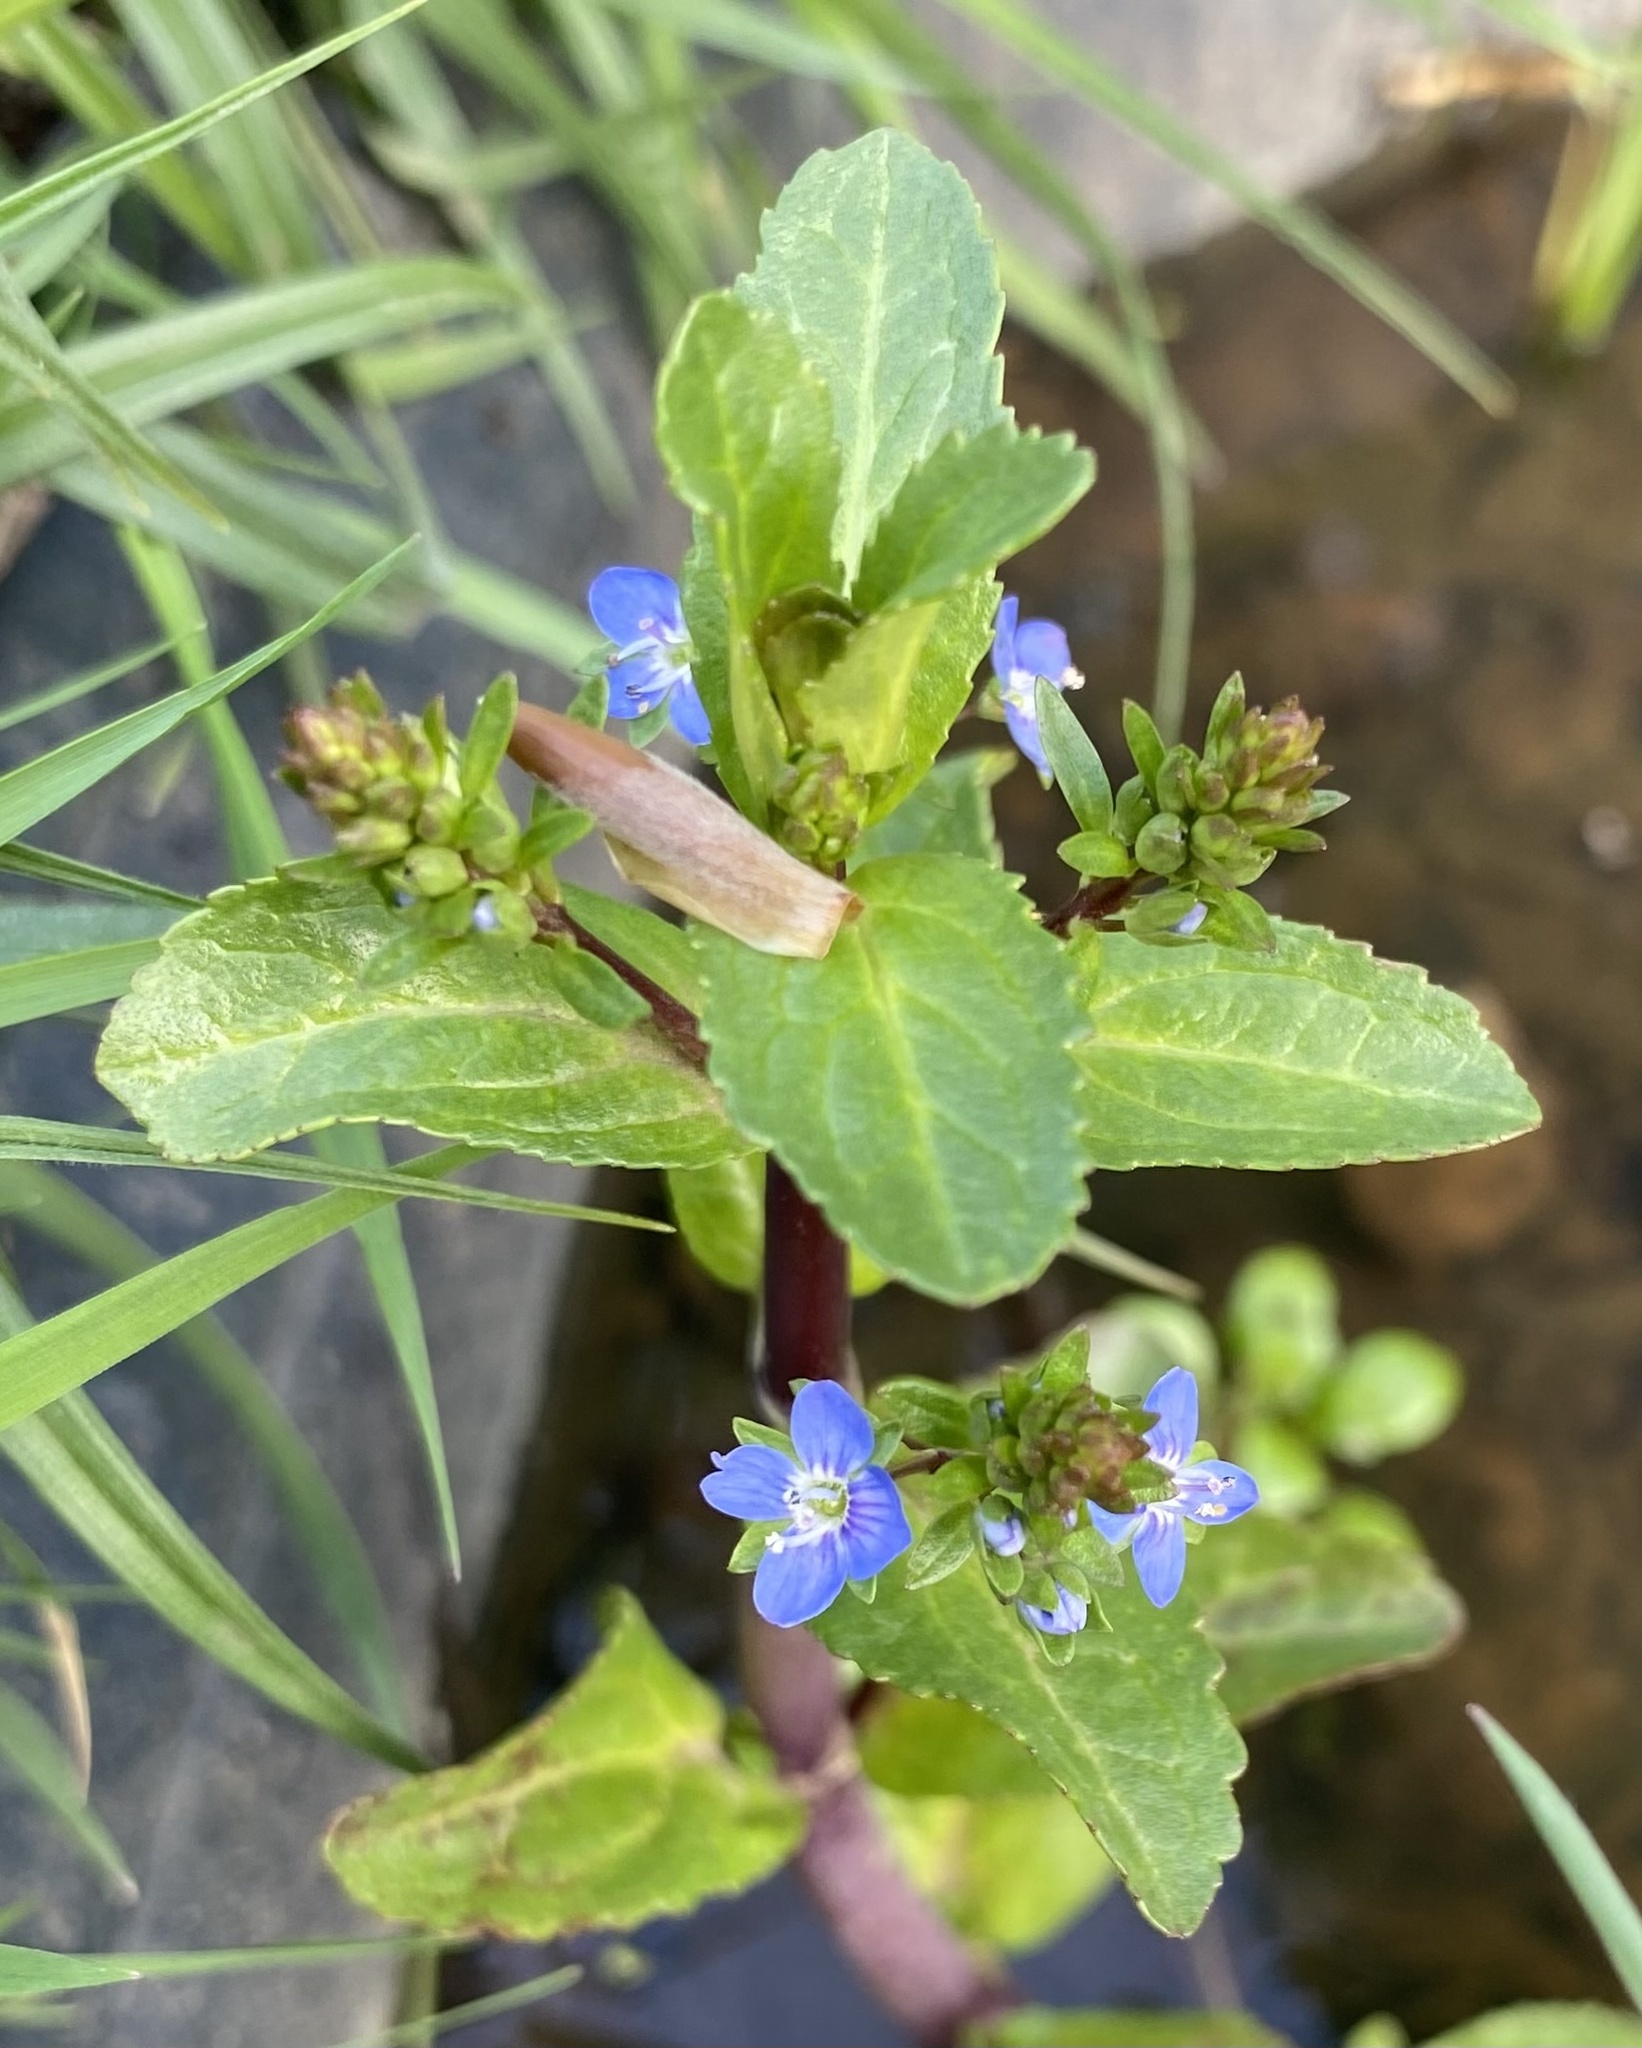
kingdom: Plantae
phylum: Tracheophyta
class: Magnoliopsida
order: Lamiales
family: Plantaginaceae
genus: Veronica
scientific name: Veronica beccabunga
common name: Brooklime
